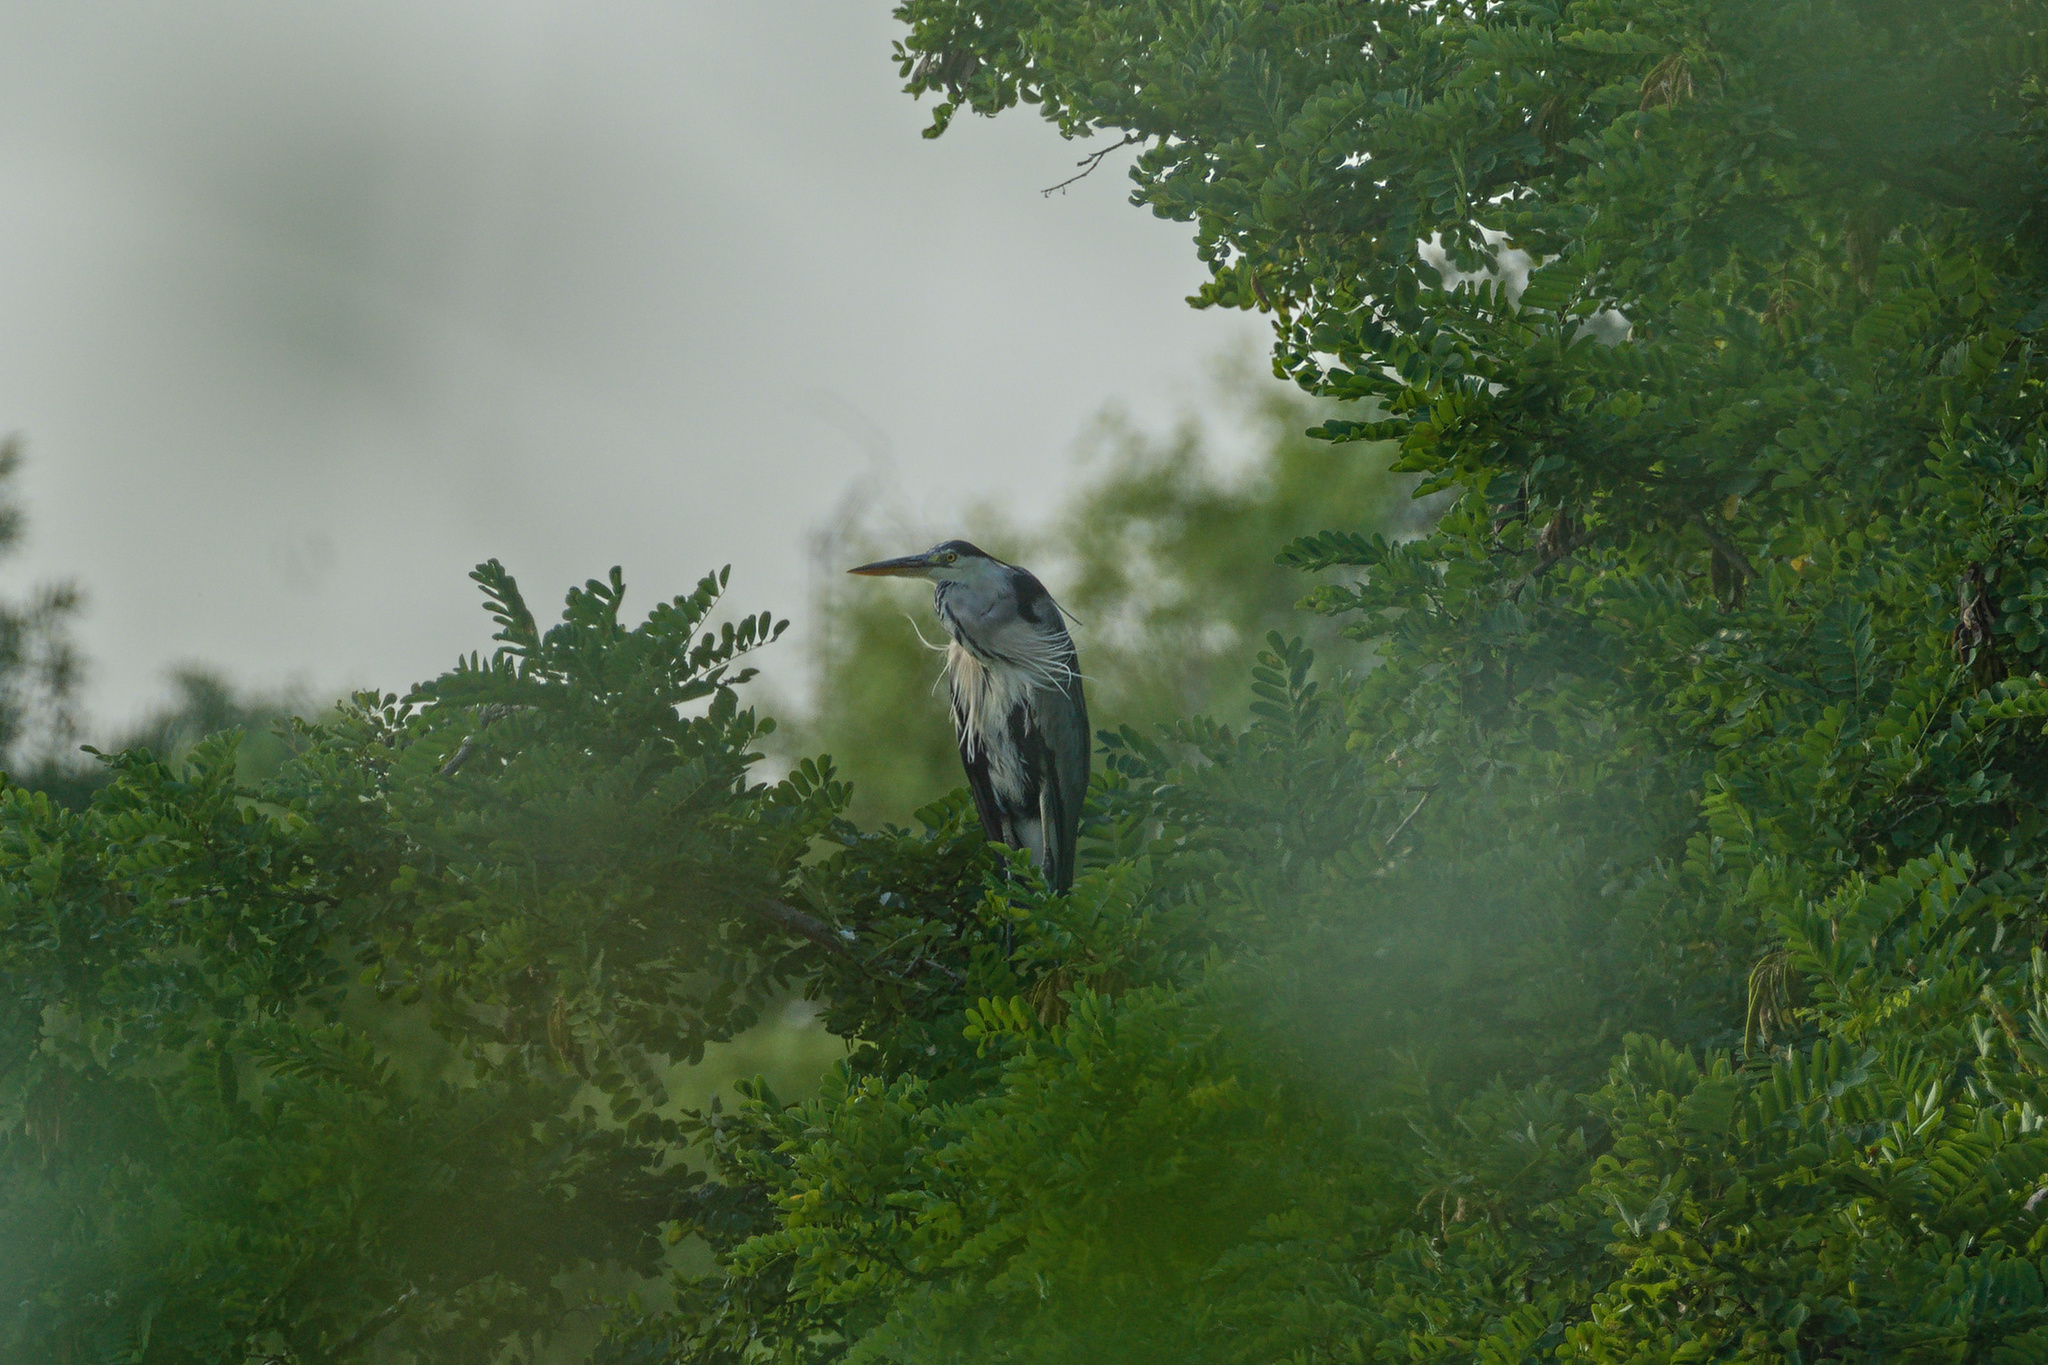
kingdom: Animalia
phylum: Chordata
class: Aves
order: Pelecaniformes
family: Ardeidae
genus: Ardea
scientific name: Ardea cinerea
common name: Grey heron
